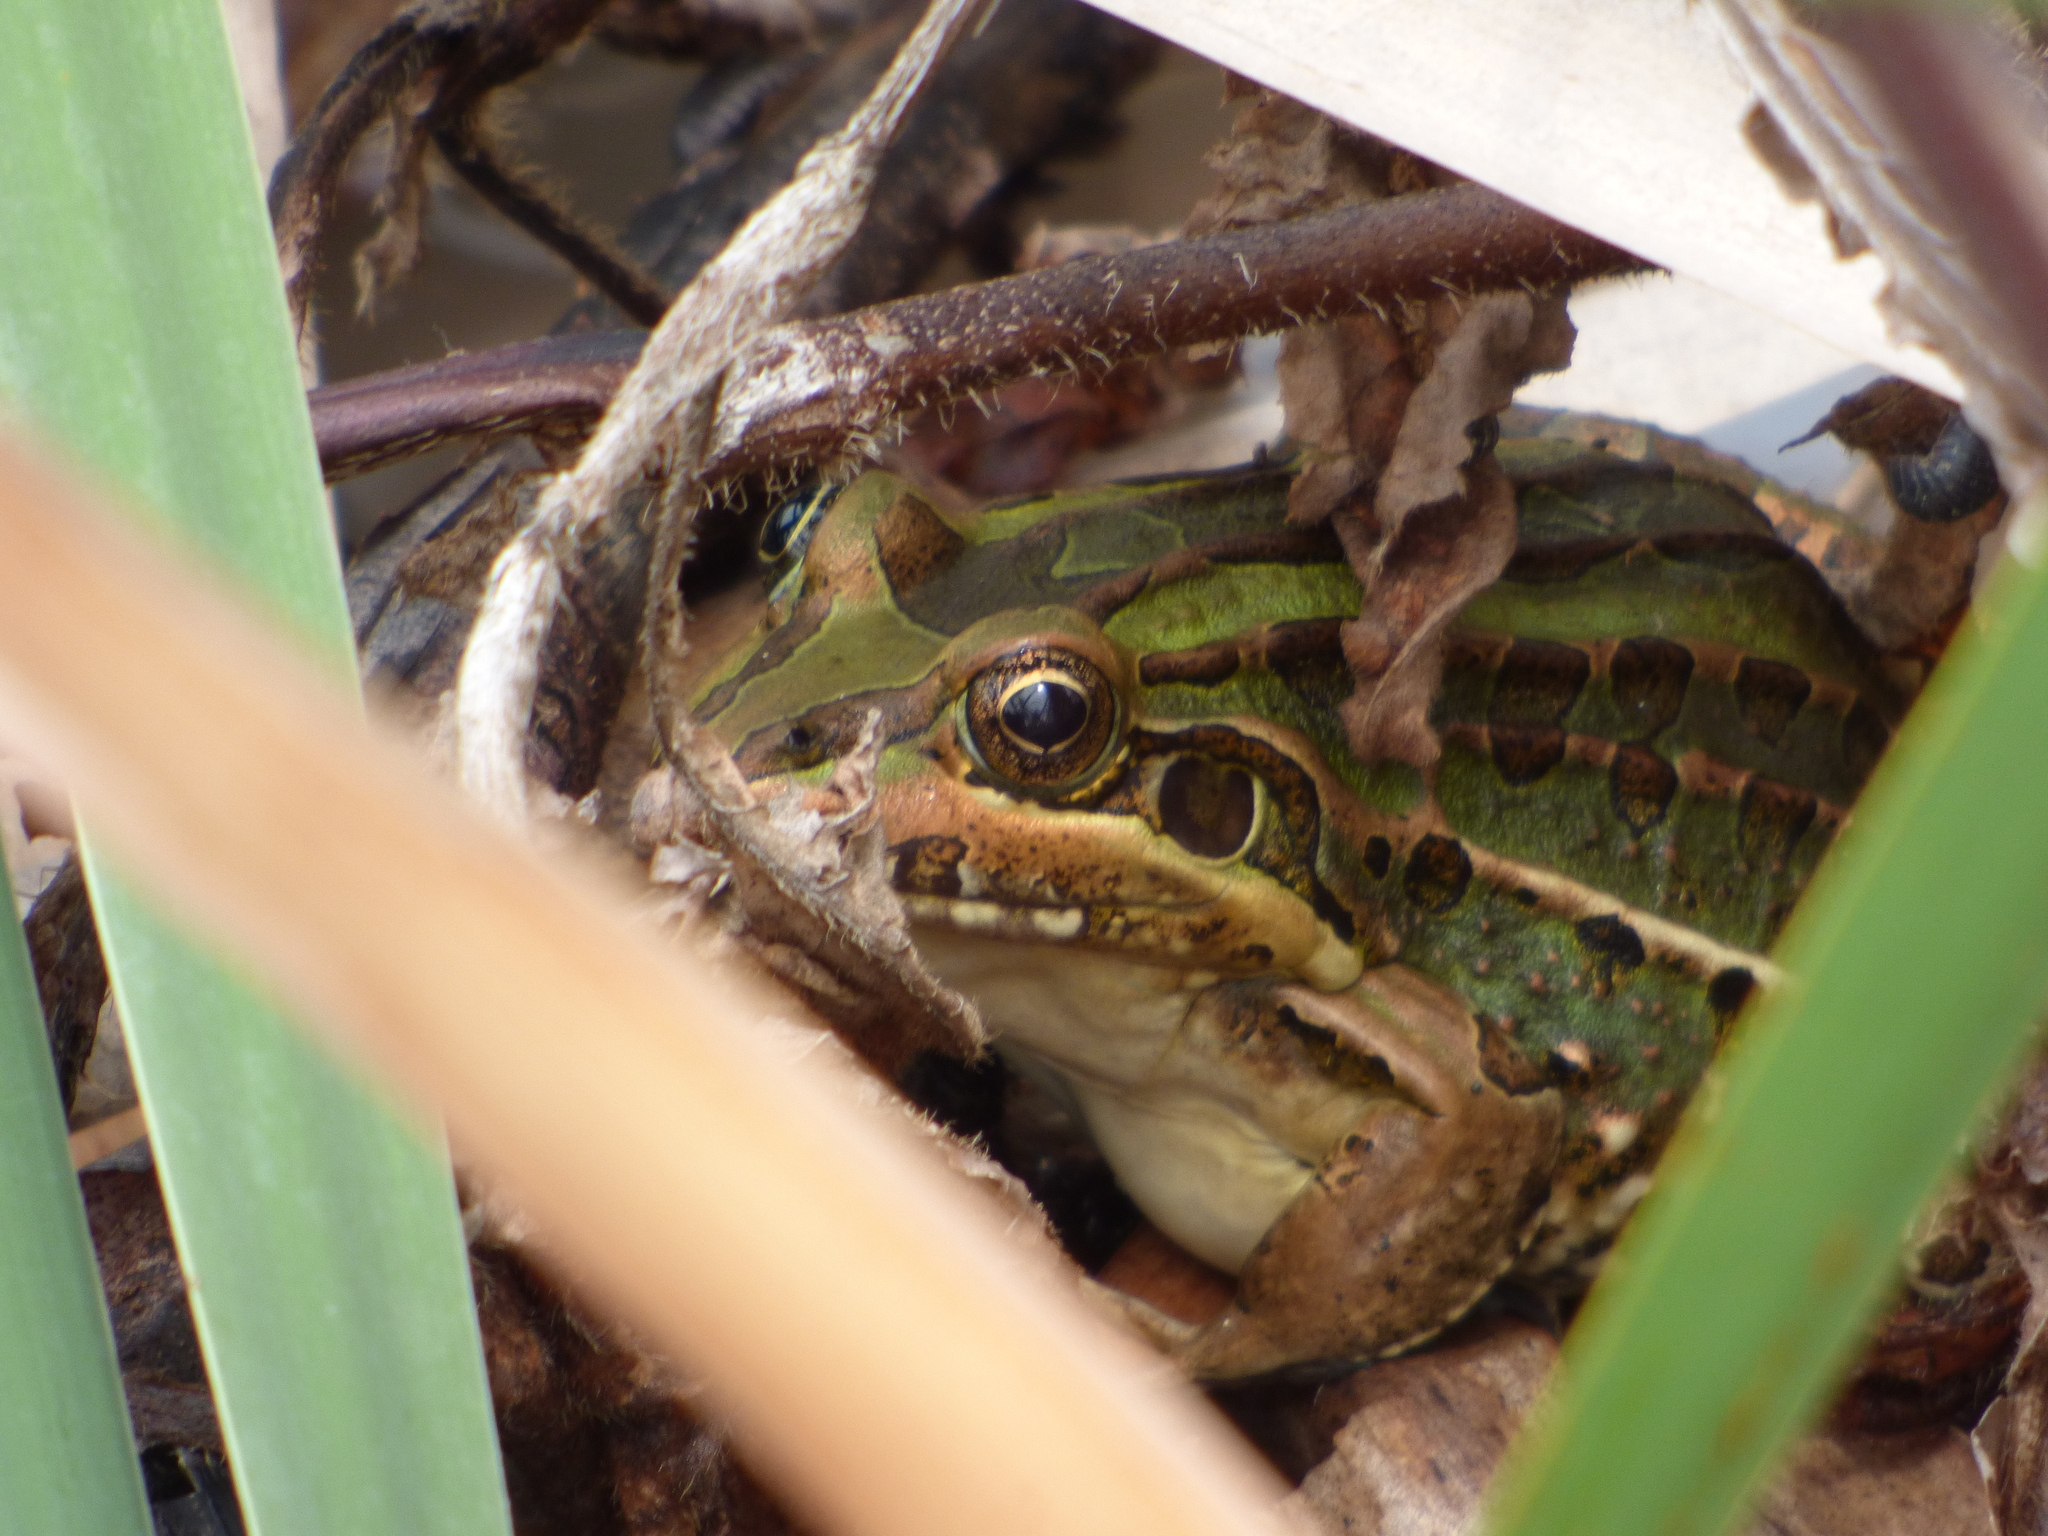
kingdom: Animalia
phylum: Chordata
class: Amphibia
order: Anura
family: Leptodactylidae
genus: Leptodactylus
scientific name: Leptodactylus luctator
